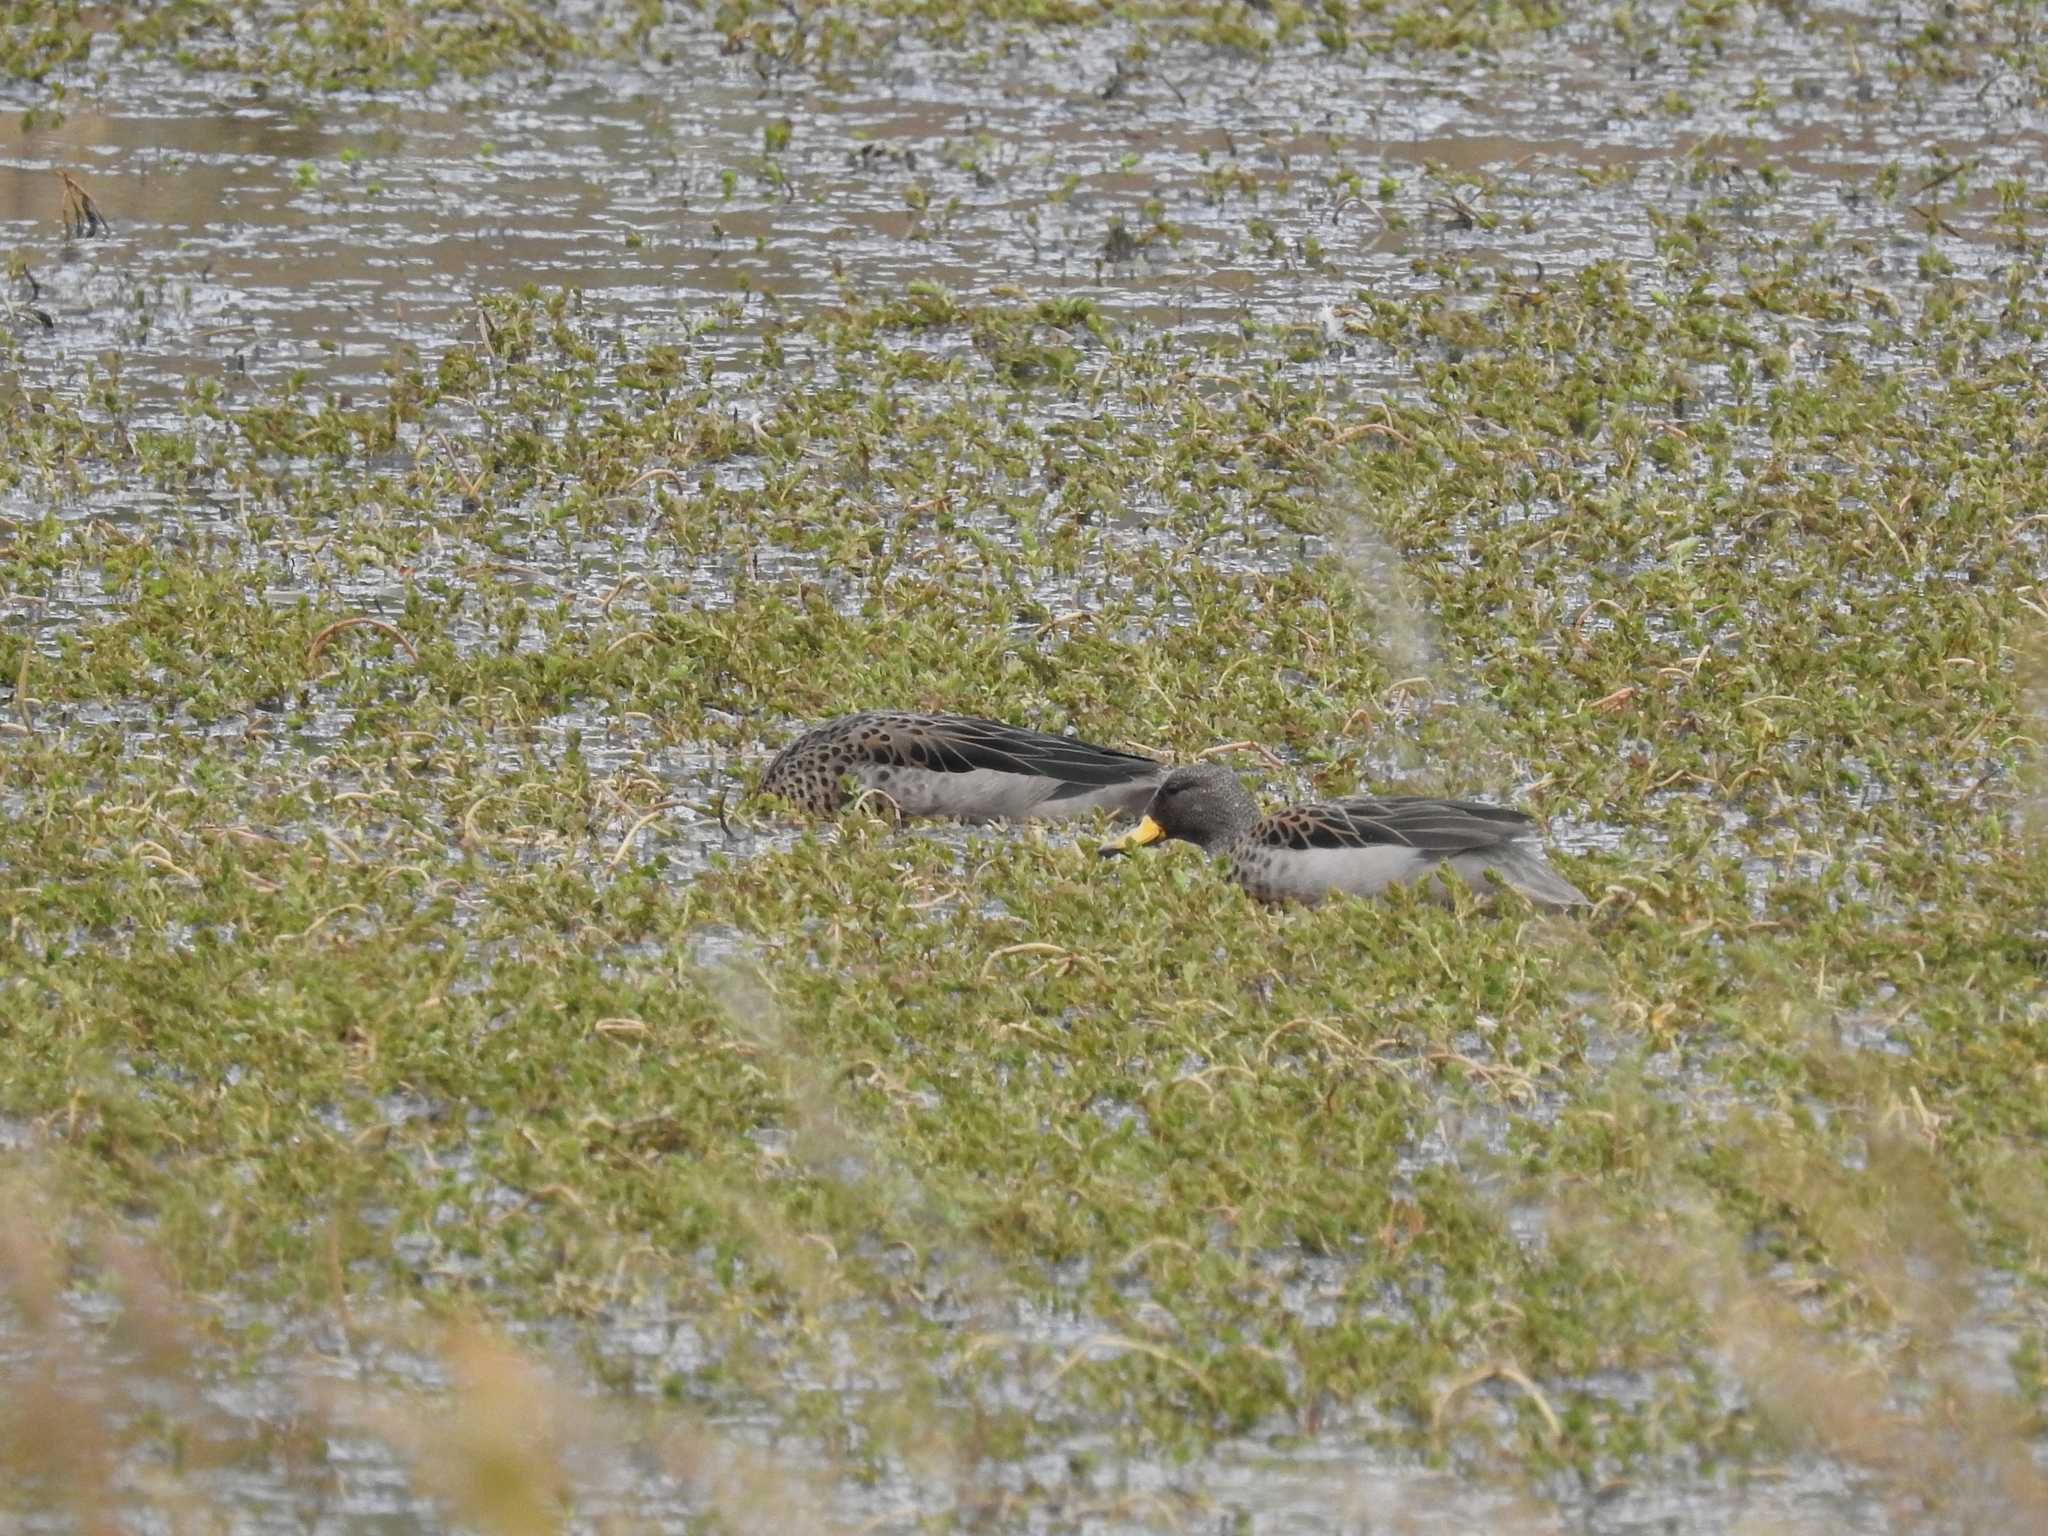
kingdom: Animalia
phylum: Chordata
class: Aves
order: Anseriformes
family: Anatidae
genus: Anas
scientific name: Anas flavirostris
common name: Yellow-billed teal
